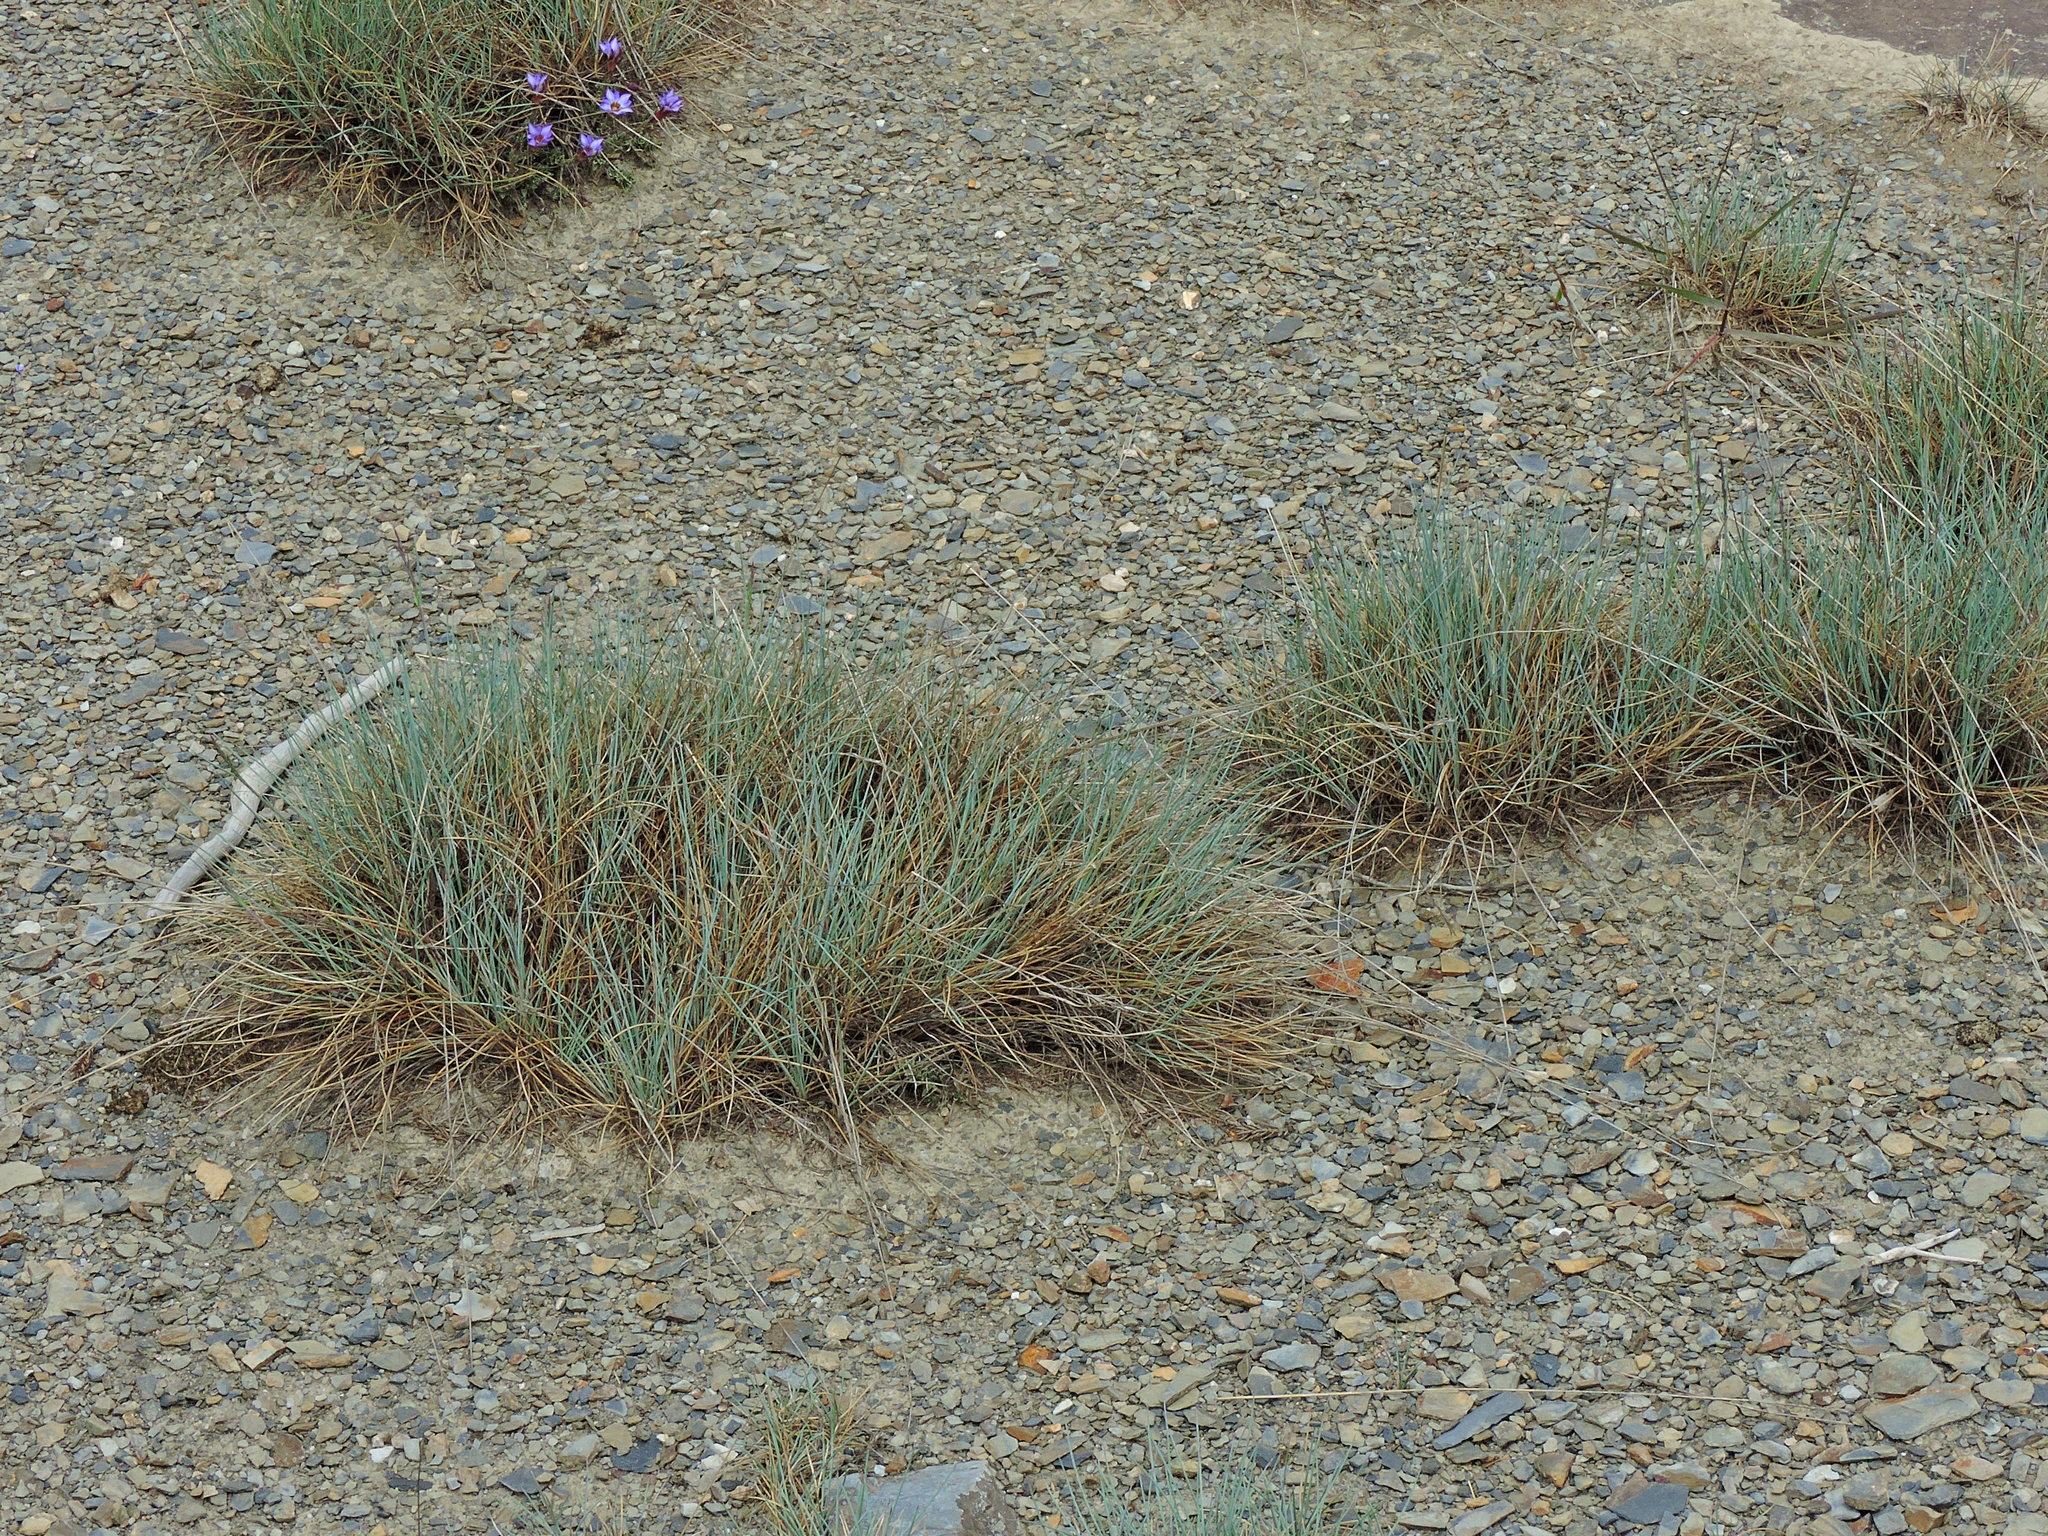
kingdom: Plantae
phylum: Tracheophyta
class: Liliopsida
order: Poales
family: Poaceae
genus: Festuca
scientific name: Festuca ovina
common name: Sheep fescue
